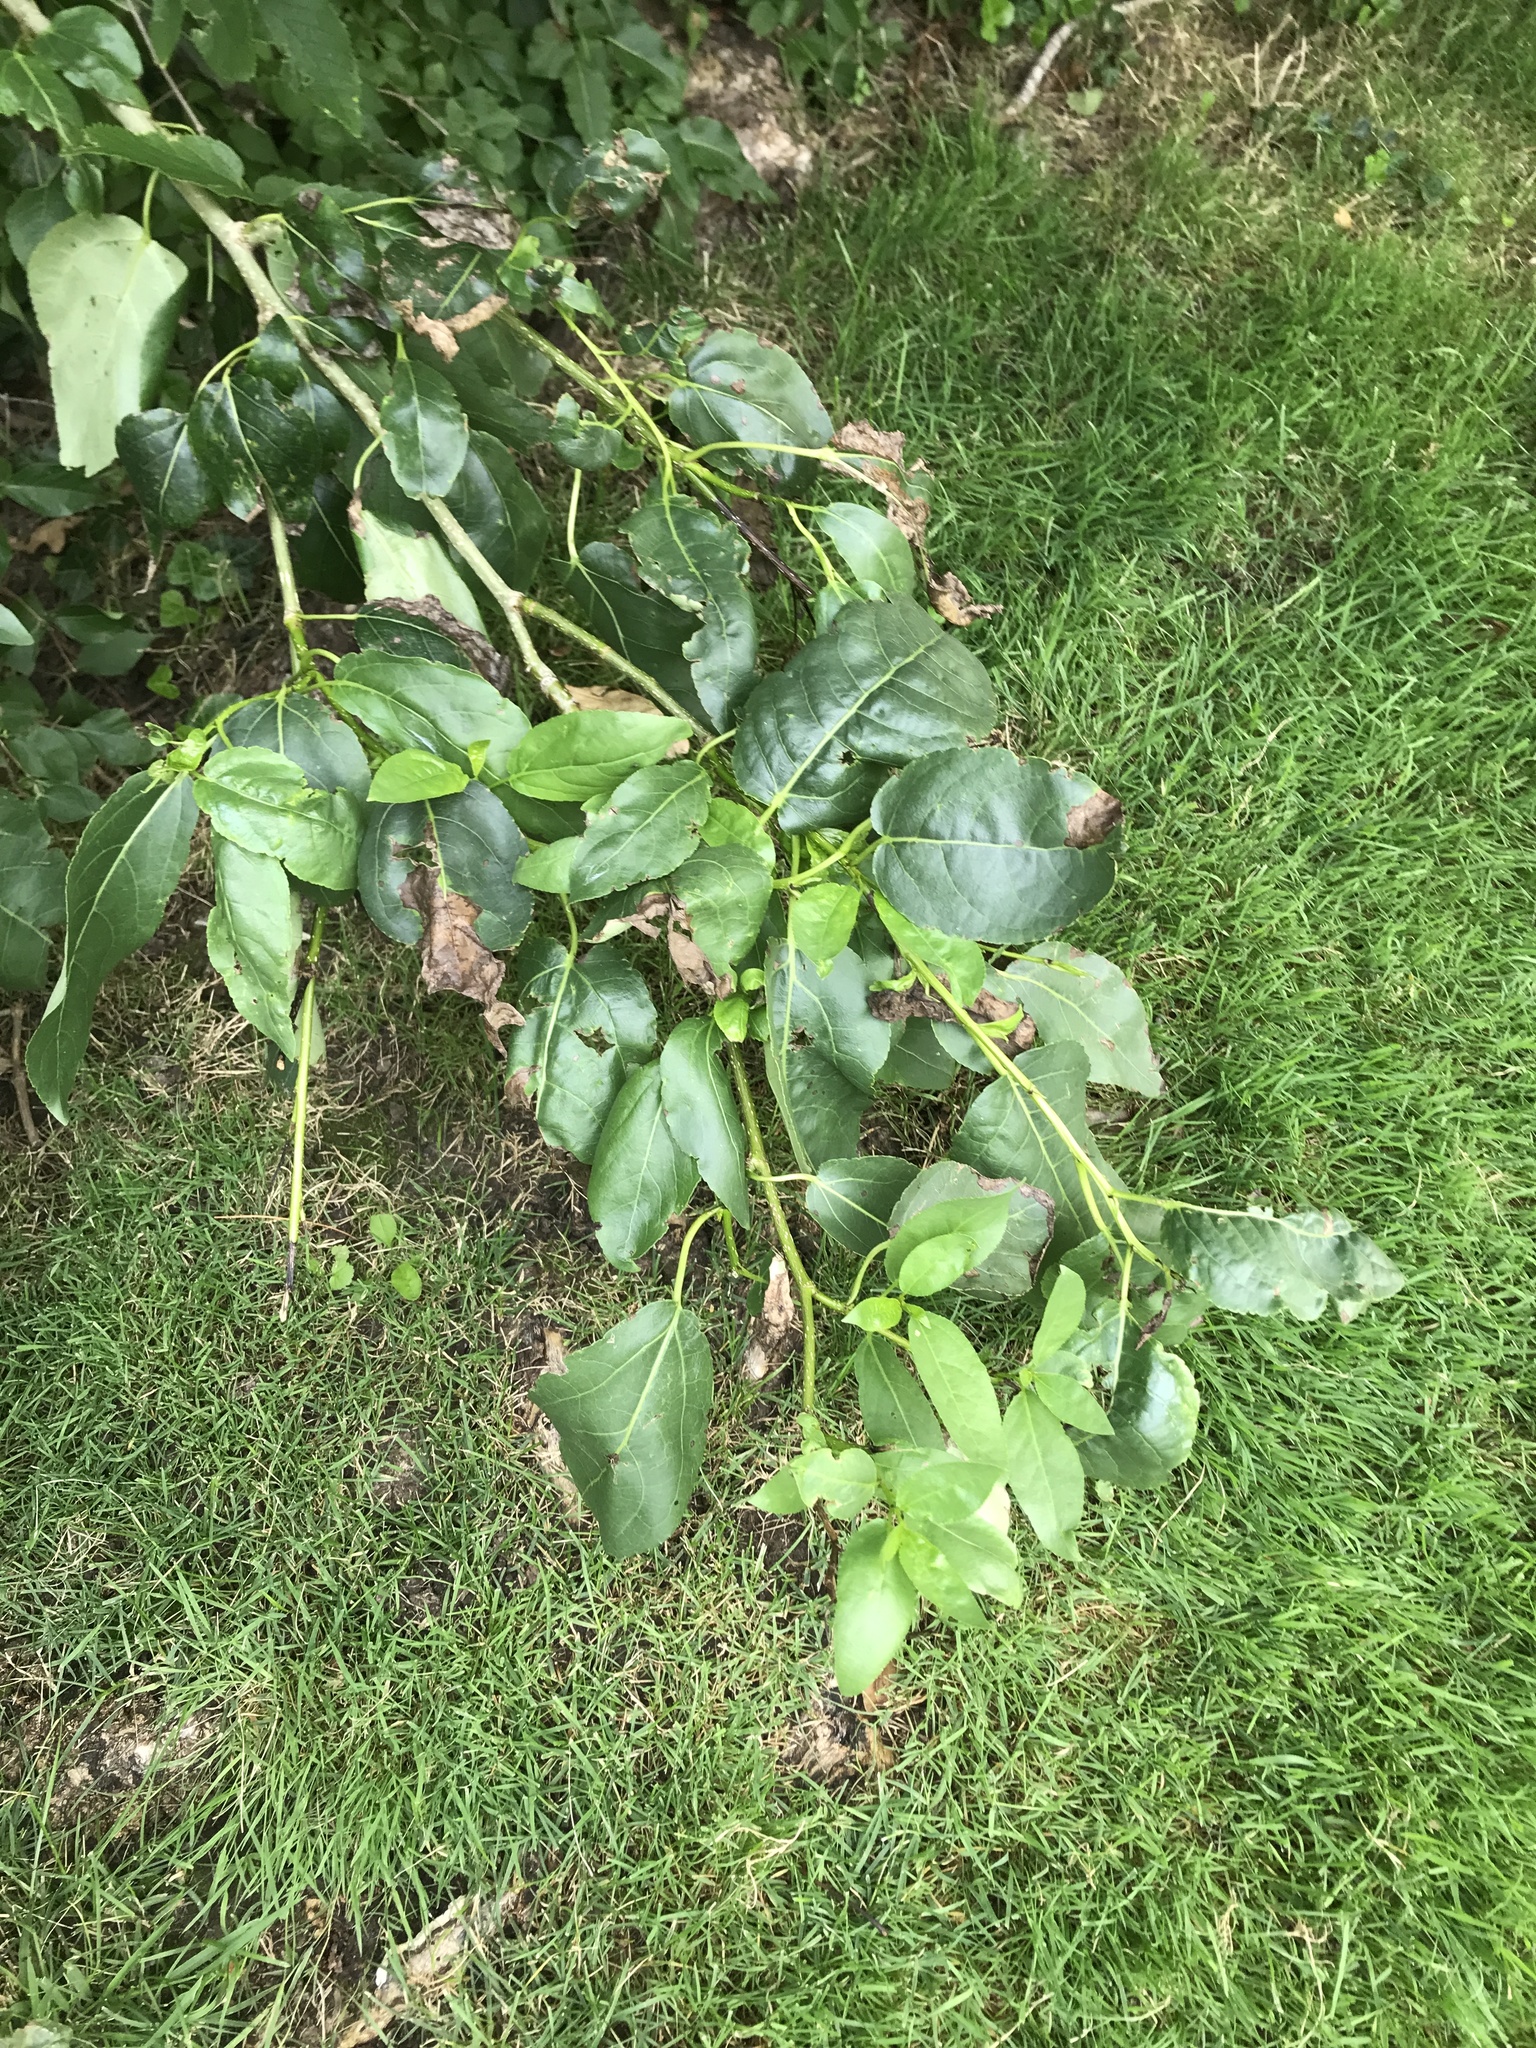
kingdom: Plantae
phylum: Tracheophyta
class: Magnoliopsida
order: Malpighiales
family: Salicaceae
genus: Populus
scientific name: Populus trichocarpa
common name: Black cottonwood
